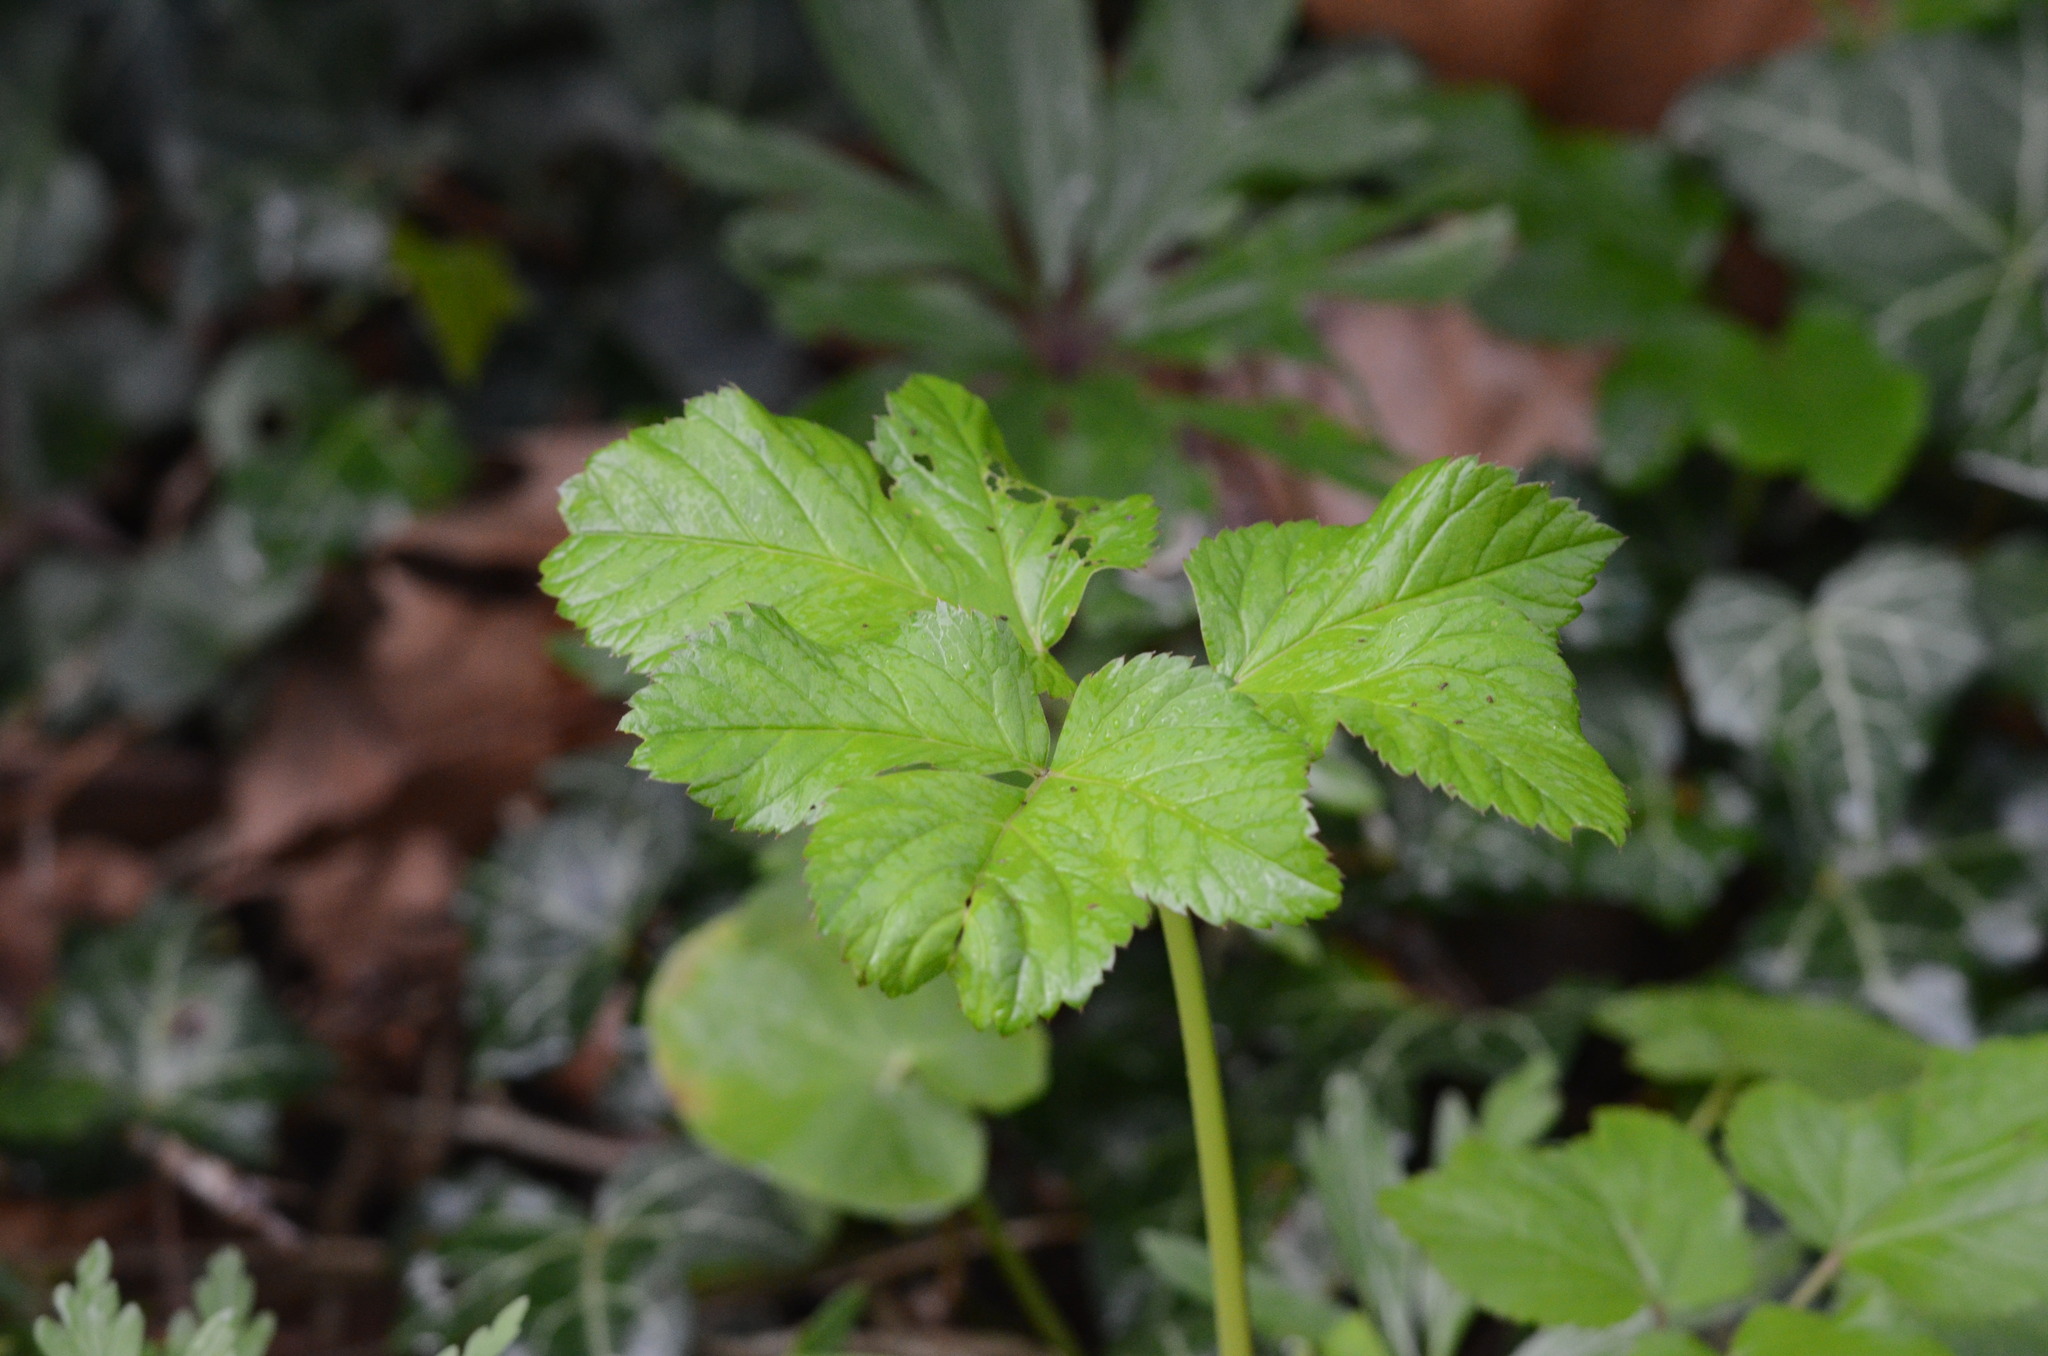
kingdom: Plantae
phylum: Tracheophyta
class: Magnoliopsida
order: Apiales
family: Apiaceae
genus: Aegopodium
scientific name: Aegopodium podagraria
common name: Ground-elder
